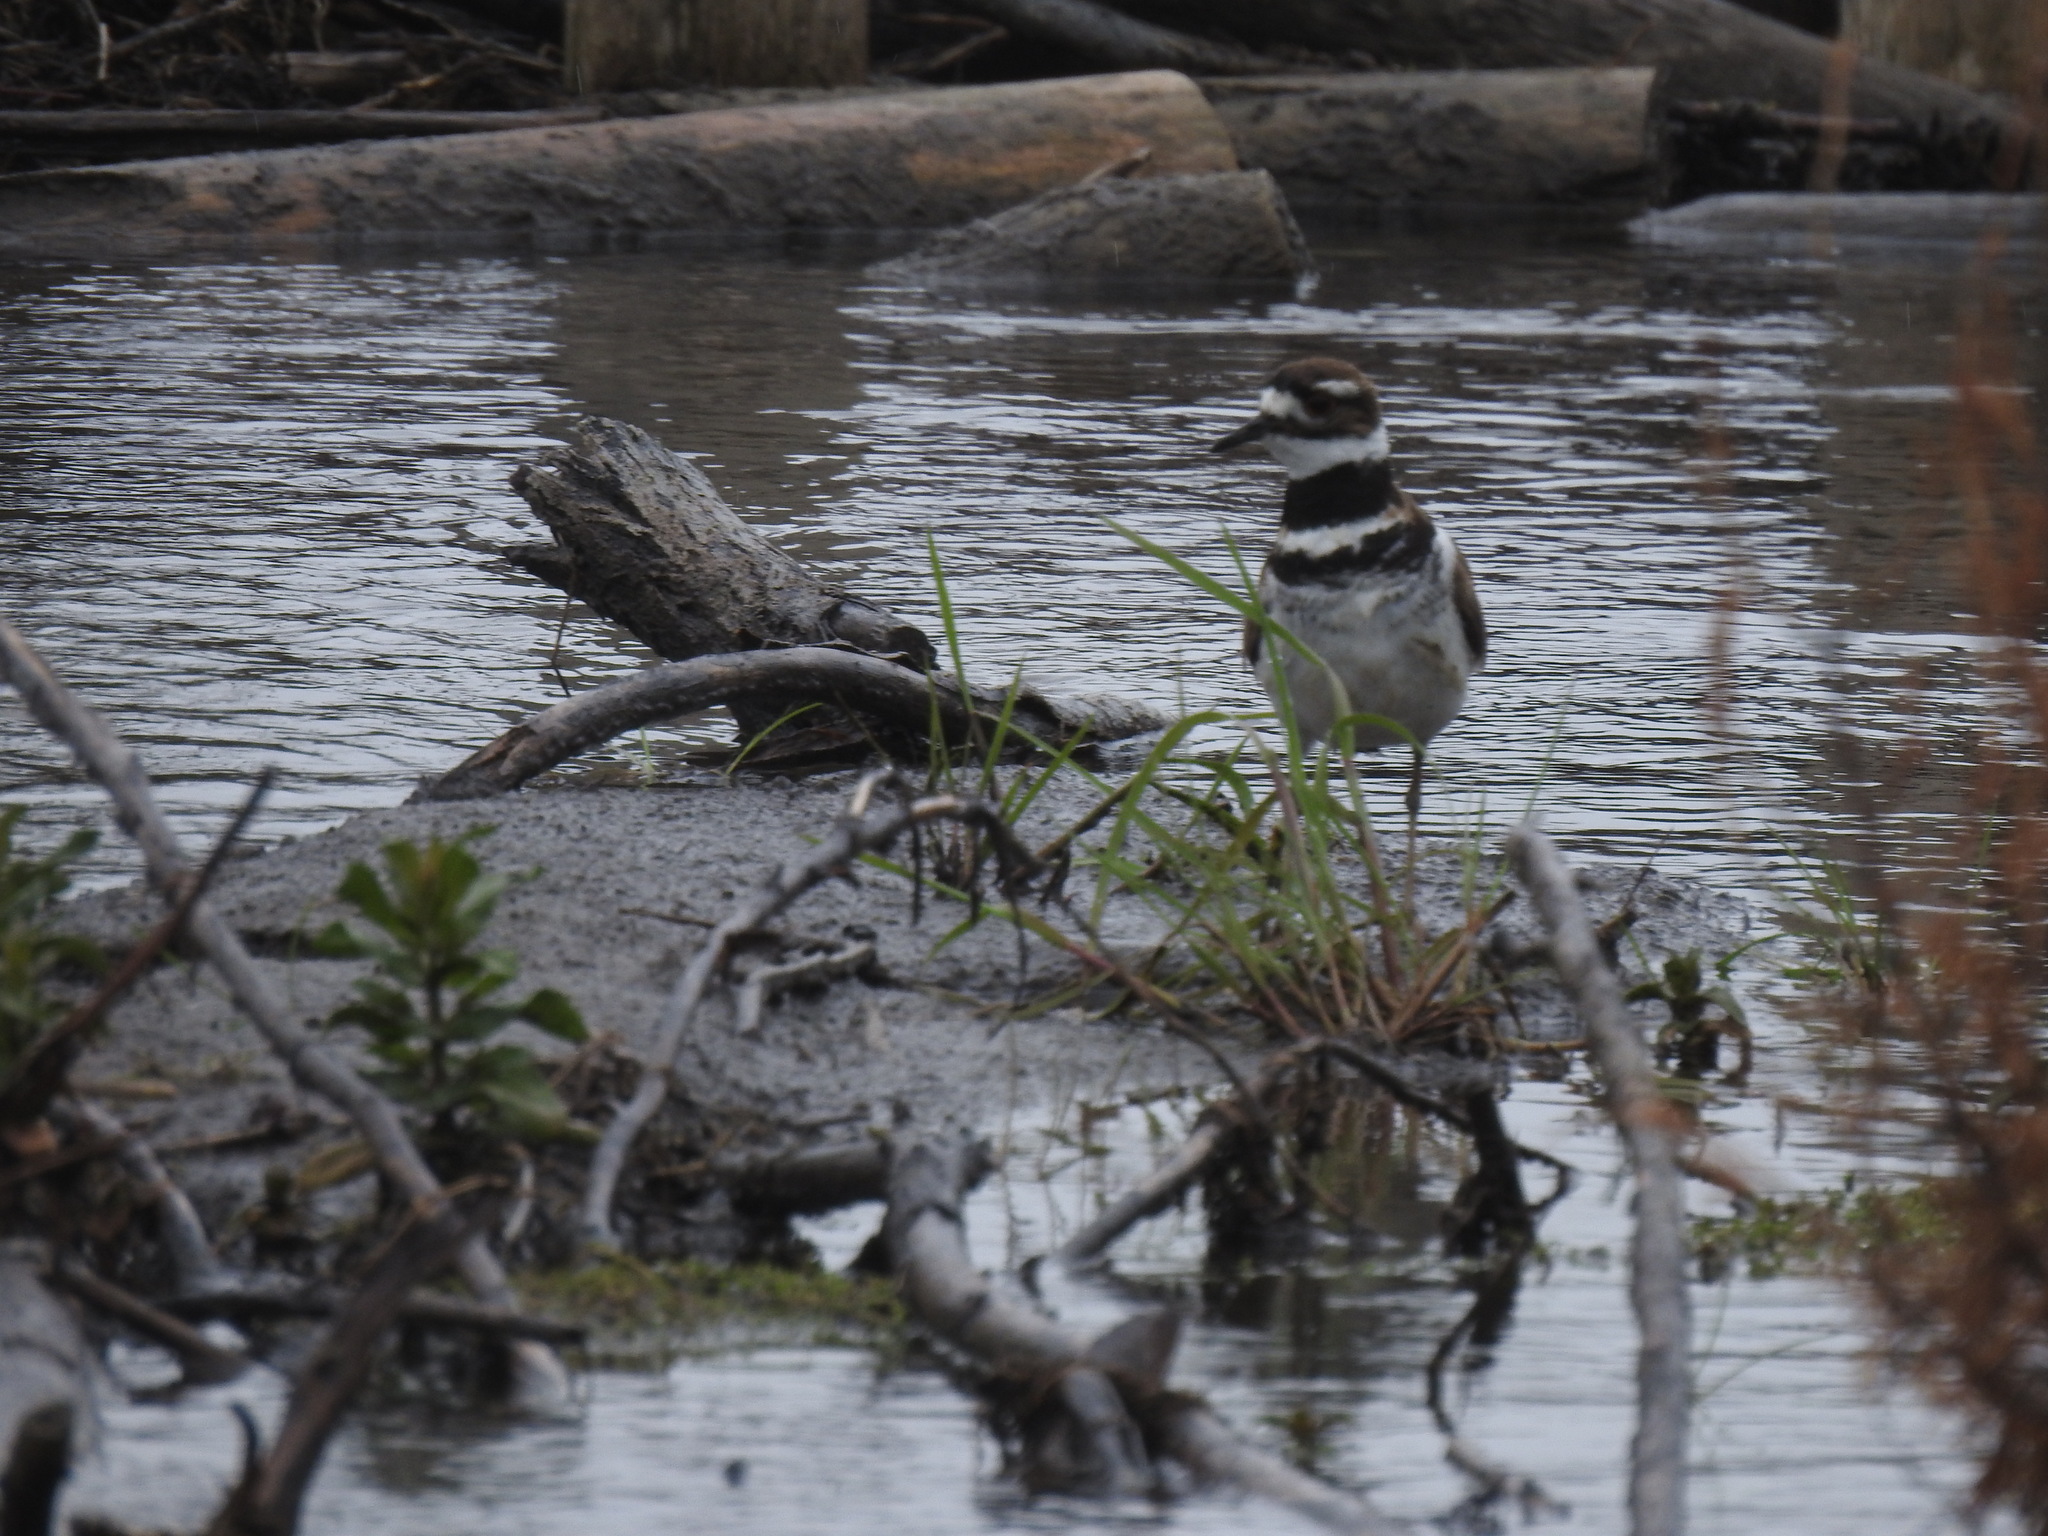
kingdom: Animalia
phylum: Chordata
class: Aves
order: Charadriiformes
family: Charadriidae
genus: Charadrius
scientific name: Charadrius vociferus
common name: Killdeer
